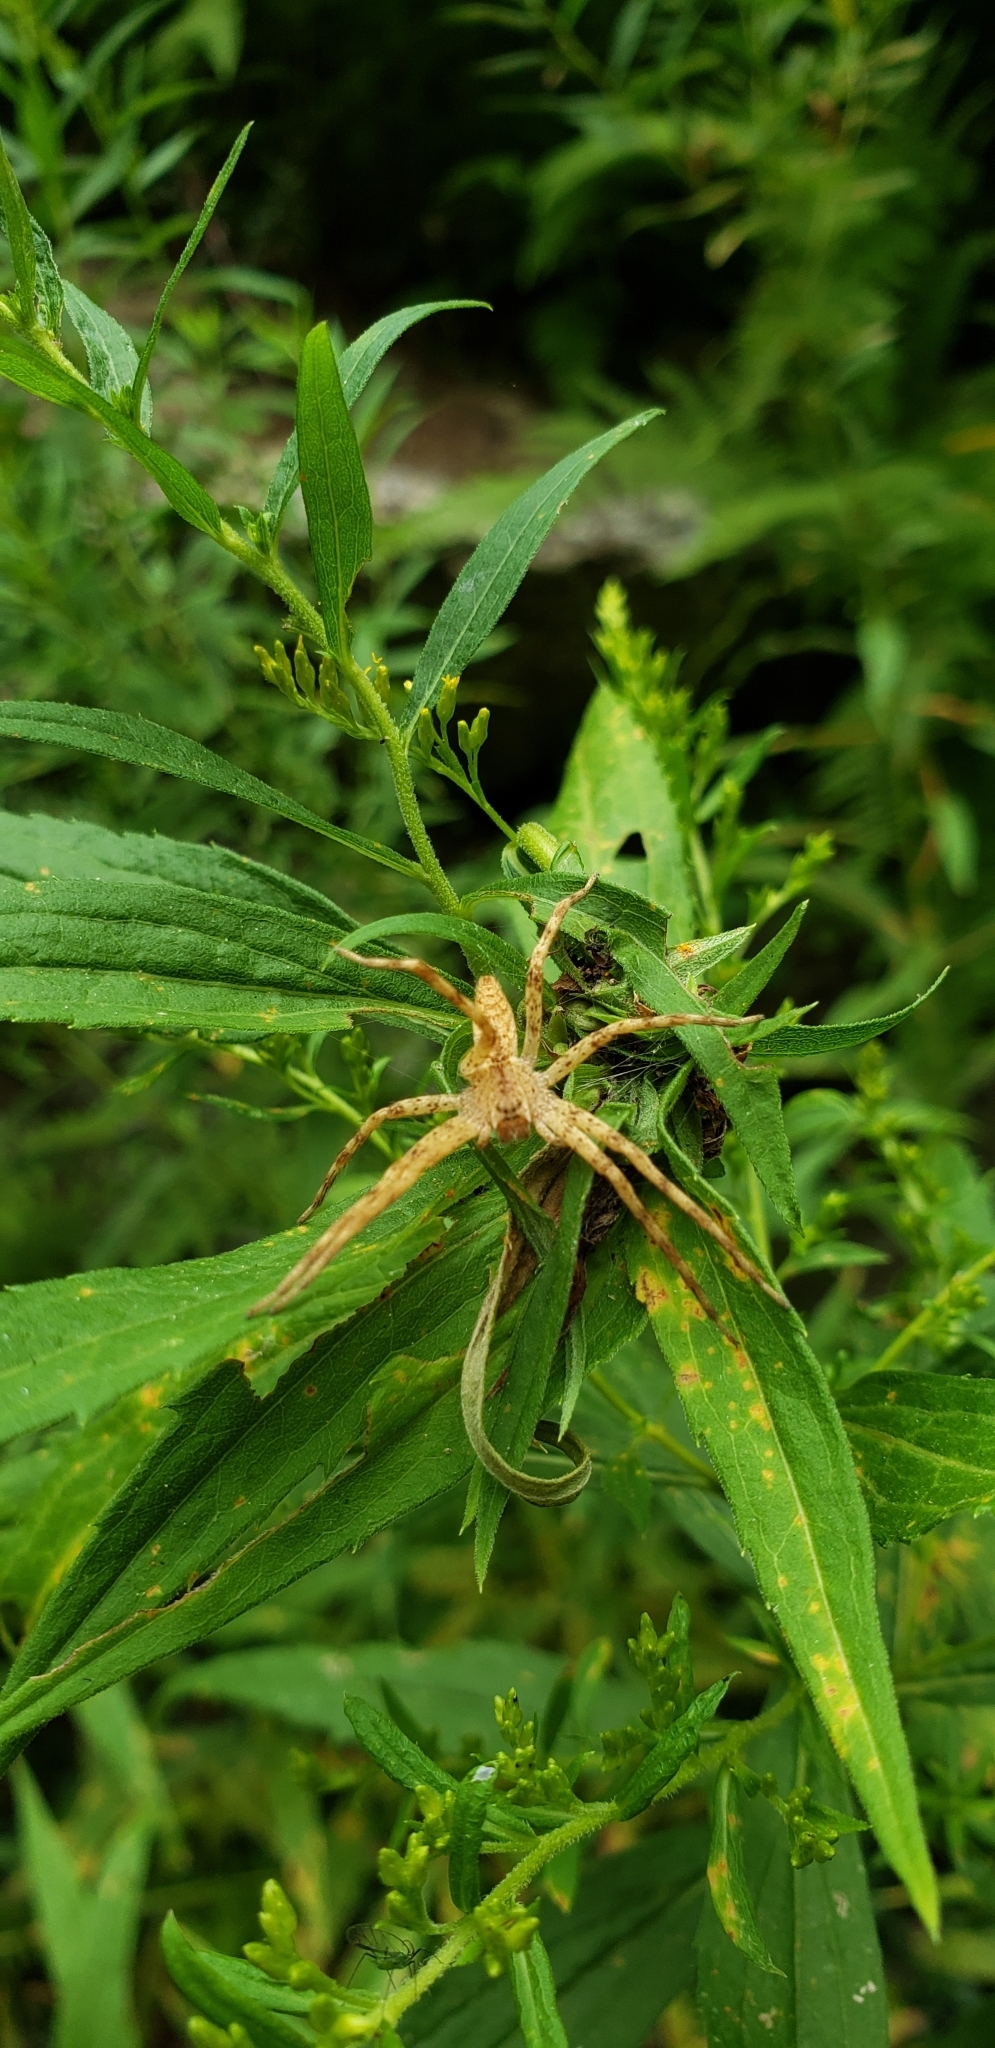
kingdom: Animalia
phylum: Arthropoda
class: Arachnida
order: Araneae
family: Pisauridae
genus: Pisaurina
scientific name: Pisaurina mira
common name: American nursery web spider
